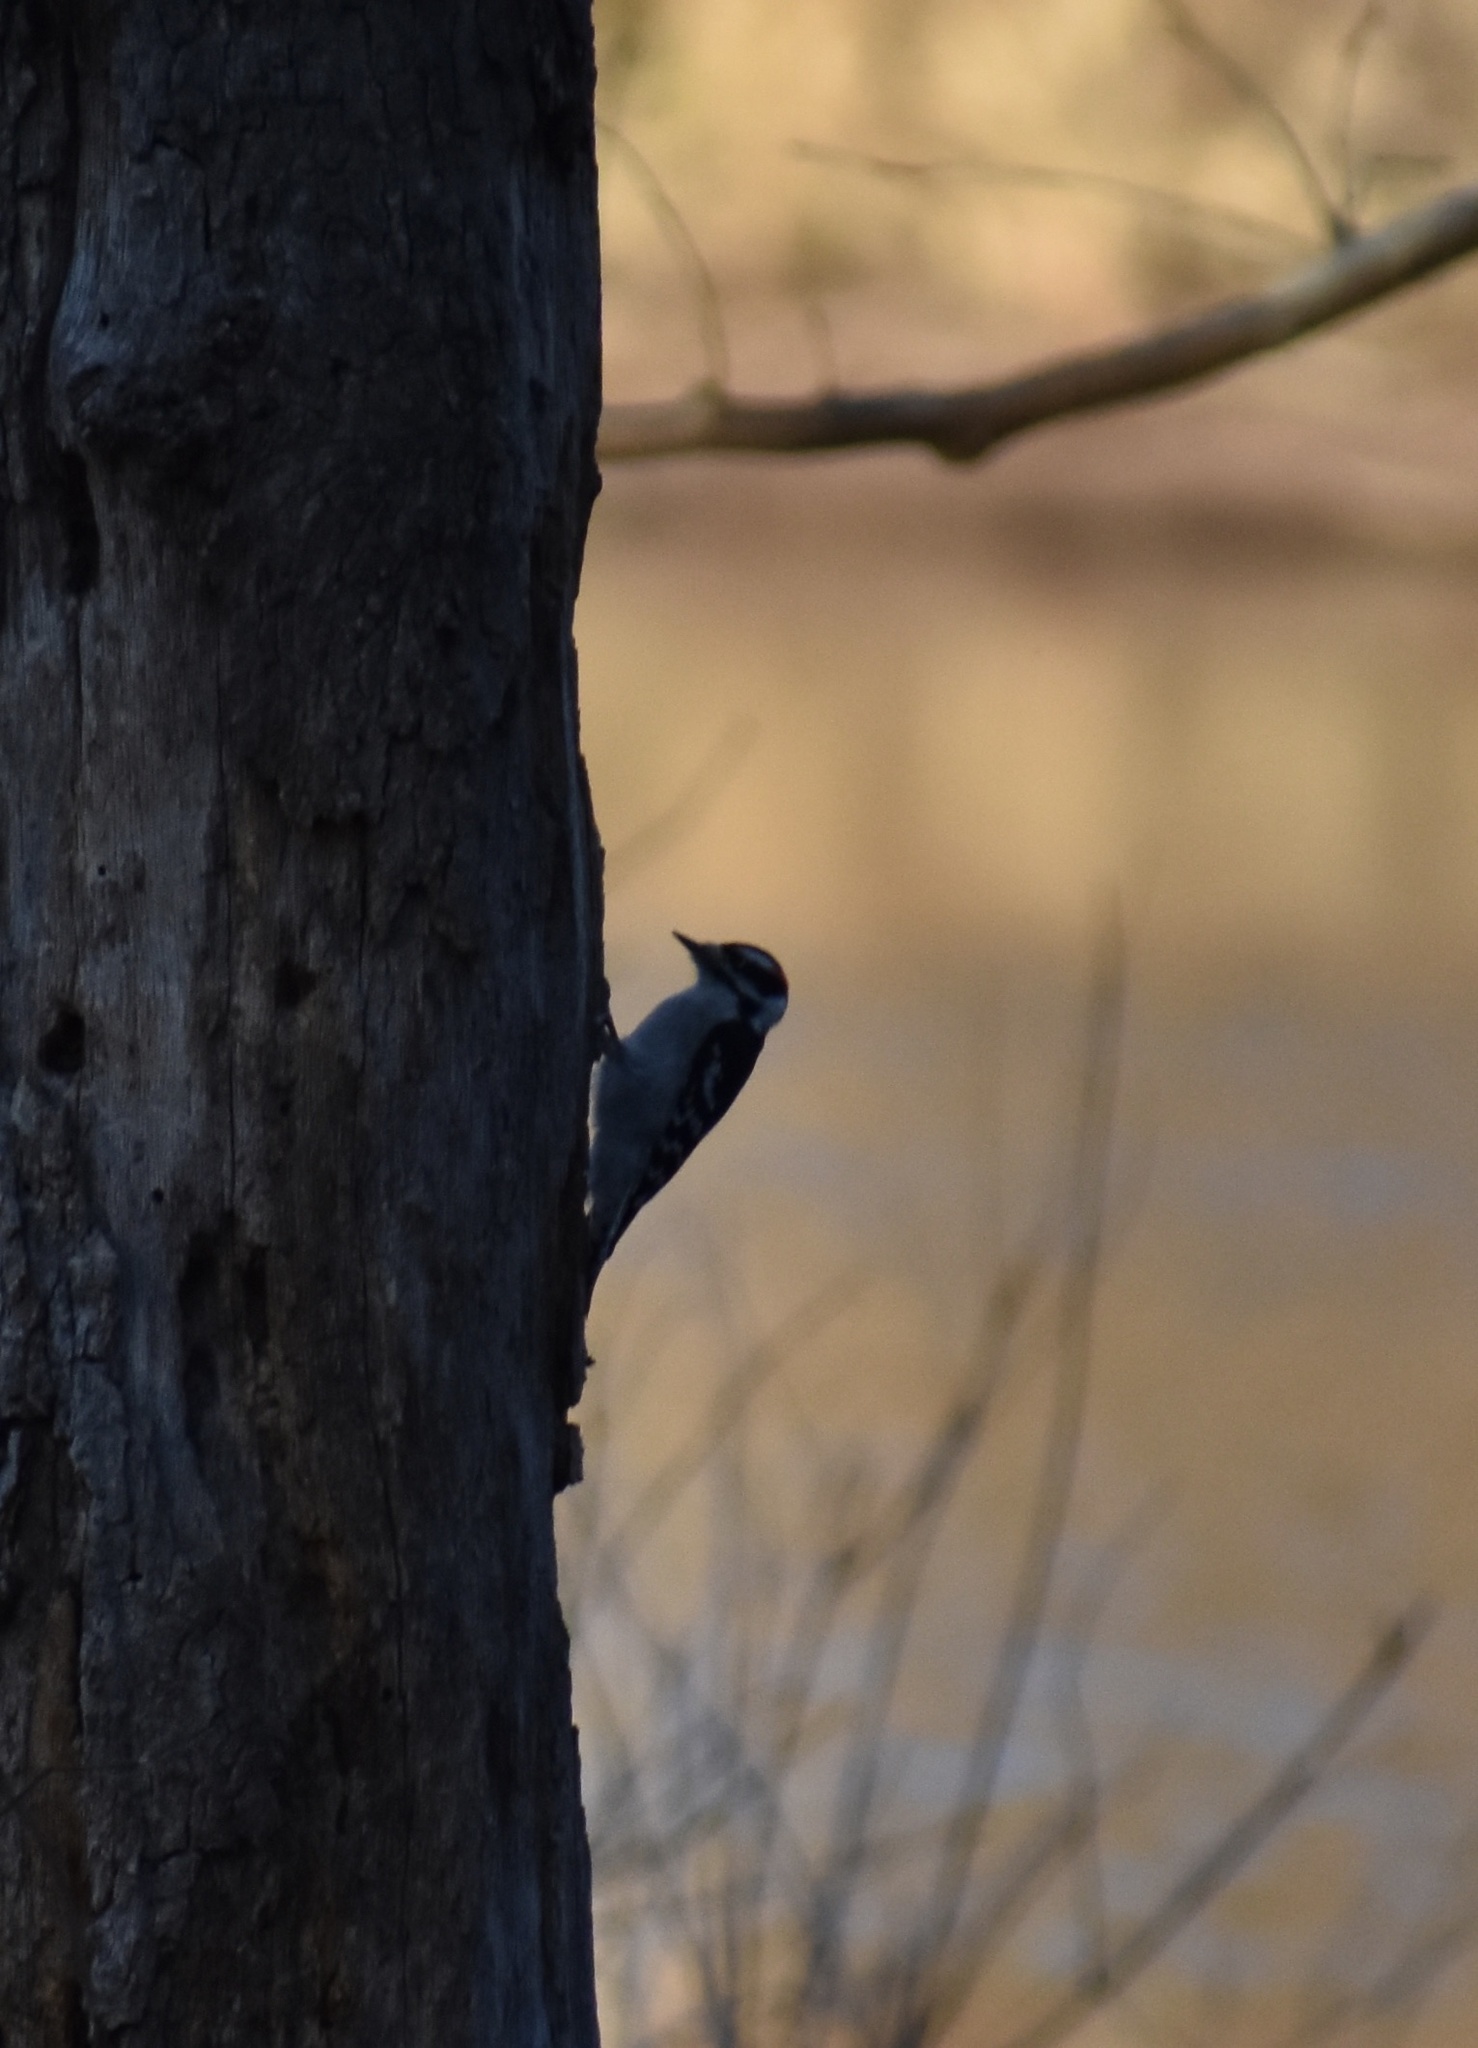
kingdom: Animalia
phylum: Chordata
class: Aves
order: Piciformes
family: Picidae
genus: Dryobates
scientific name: Dryobates pubescens
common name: Downy woodpecker
